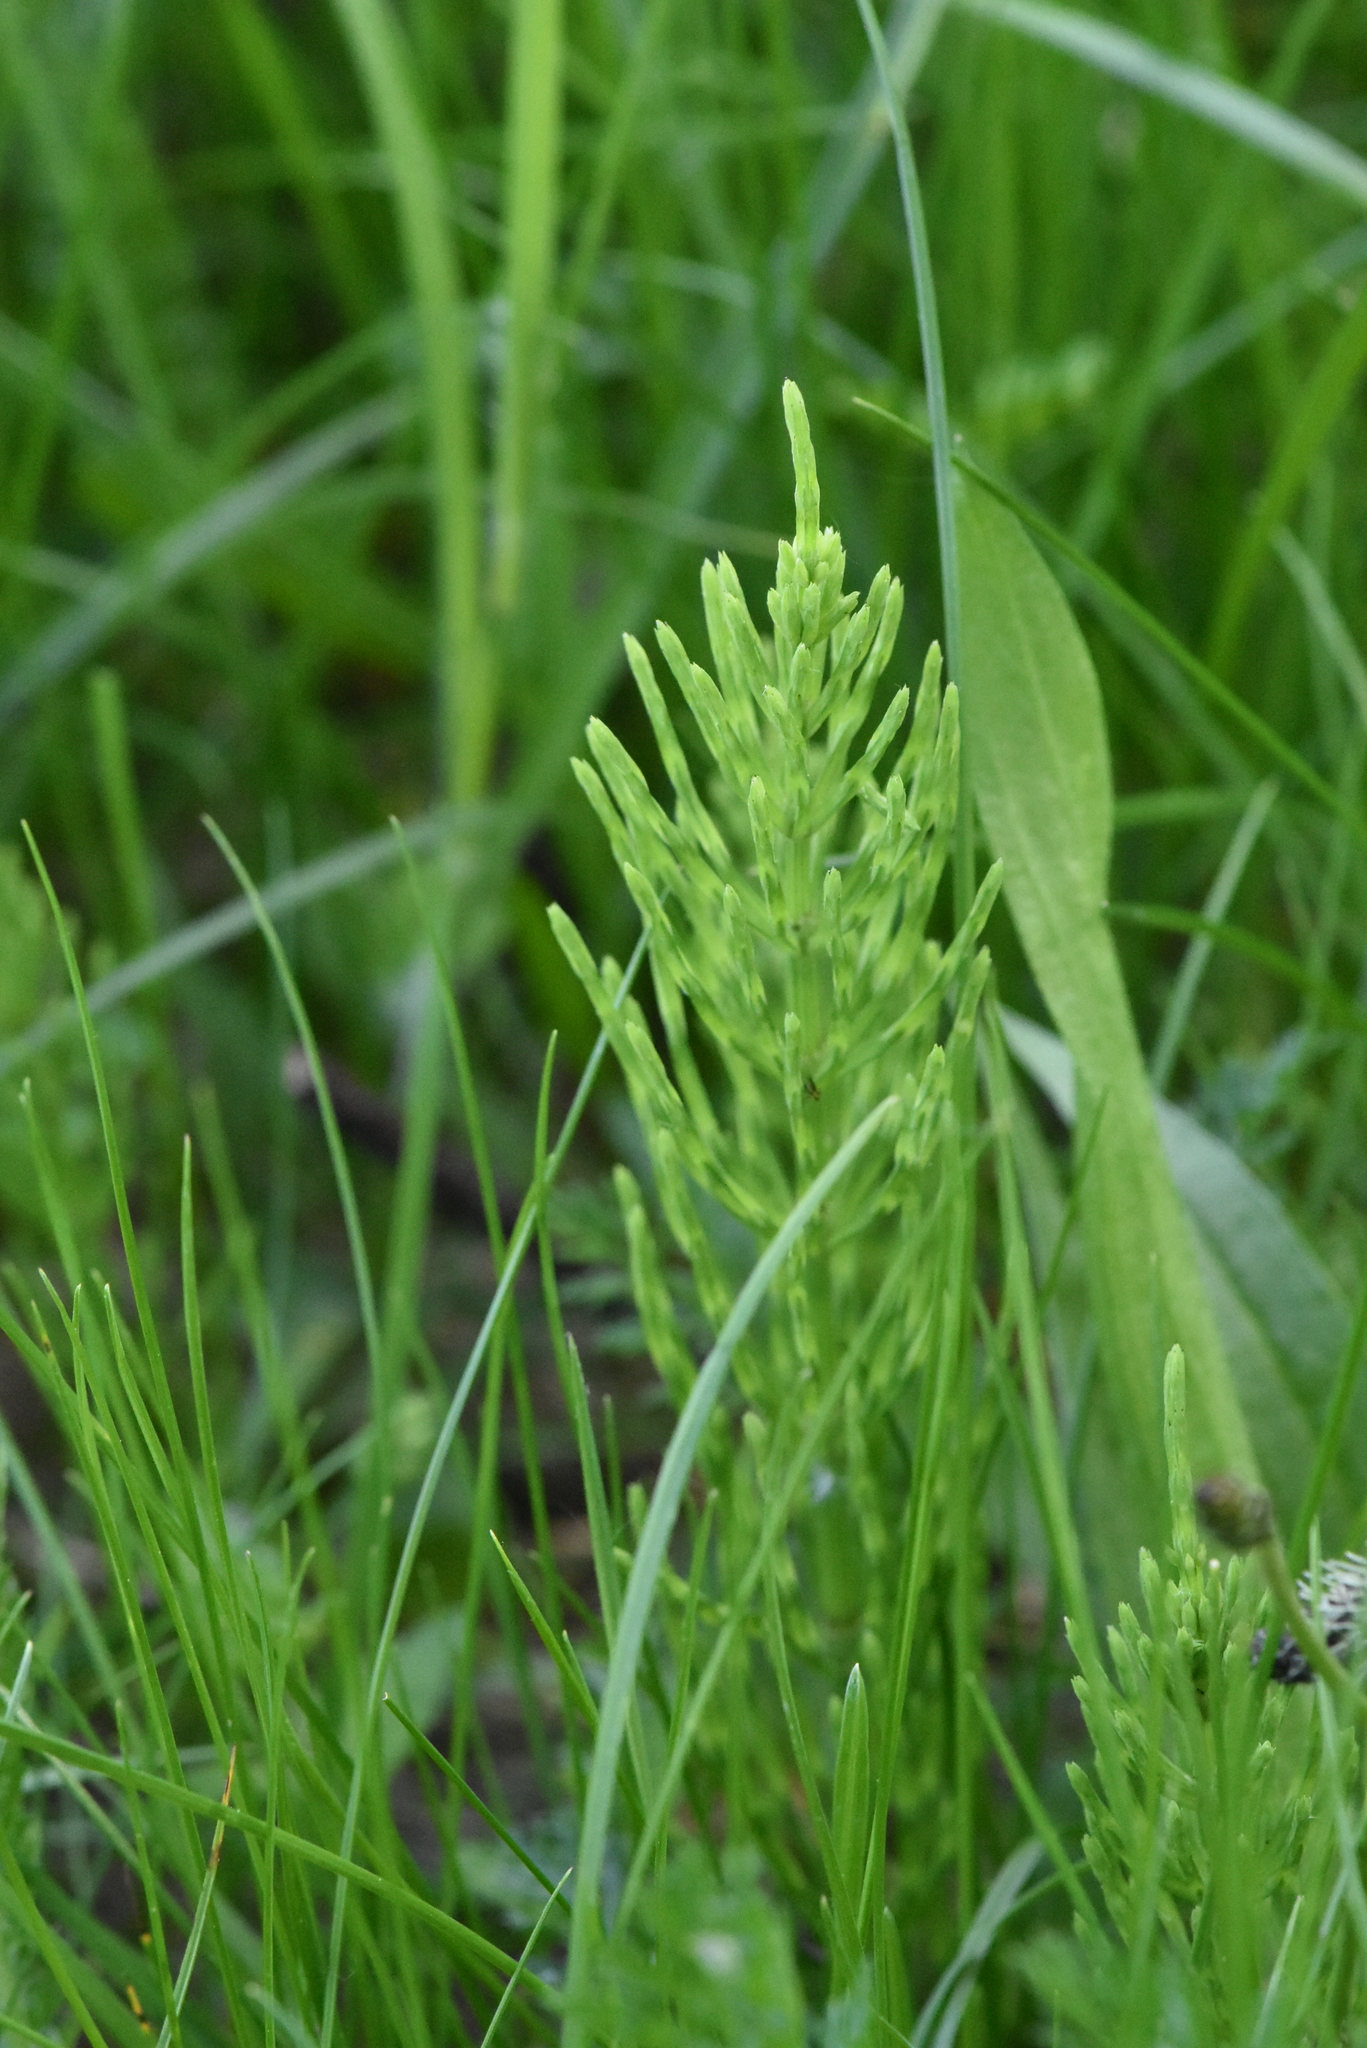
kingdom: Plantae
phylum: Tracheophyta
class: Polypodiopsida
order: Equisetales
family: Equisetaceae
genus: Equisetum
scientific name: Equisetum arvense
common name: Field horsetail
